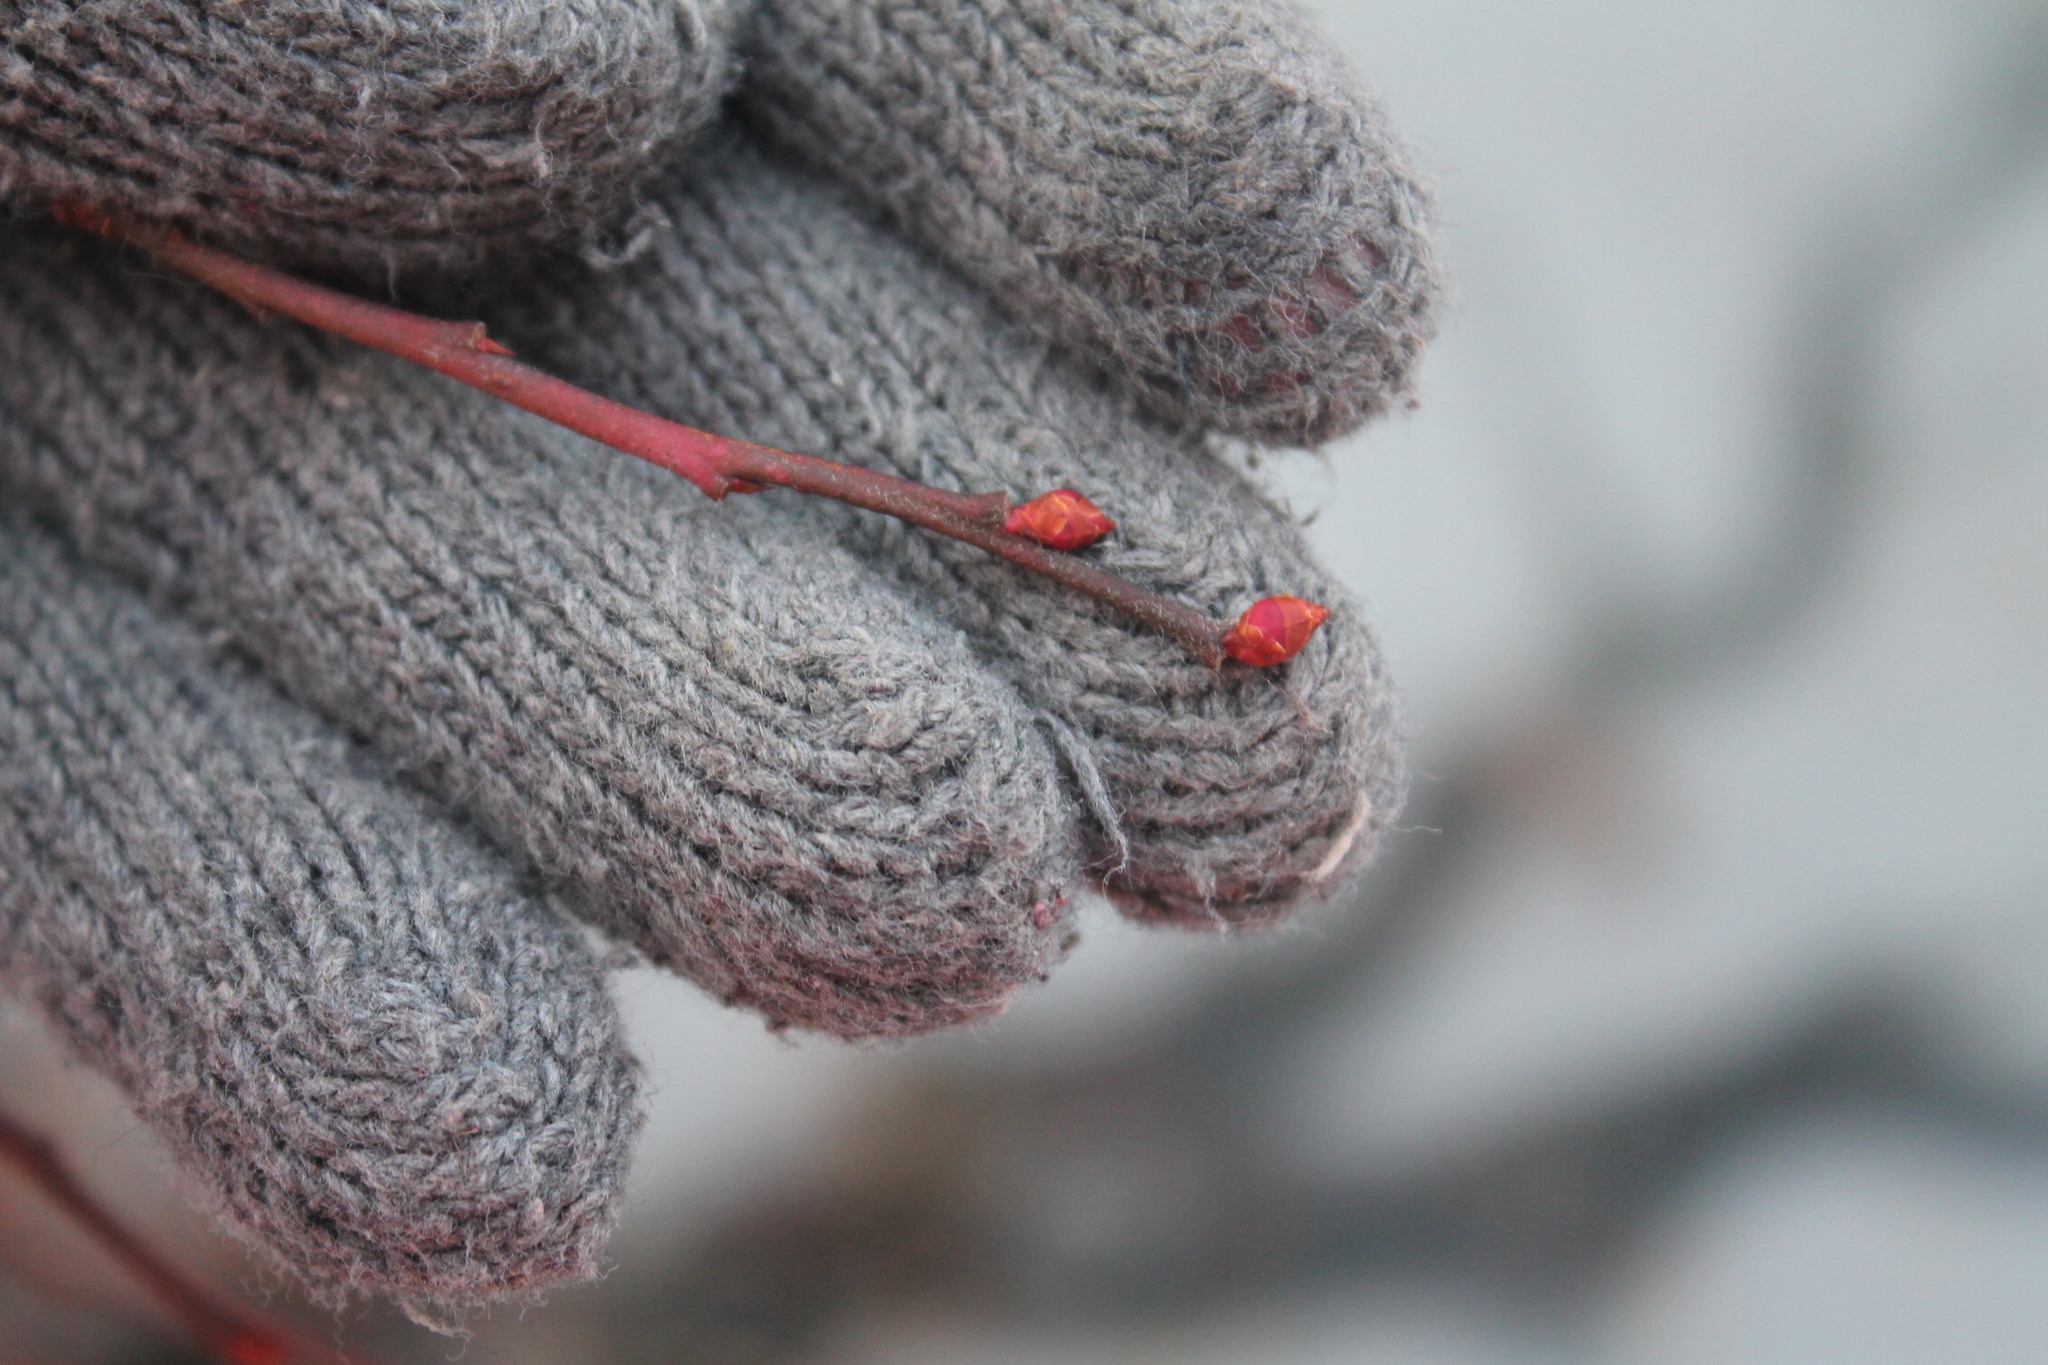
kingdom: Plantae
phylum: Tracheophyta
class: Magnoliopsida
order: Ericales
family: Ericaceae
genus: Vaccinium
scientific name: Vaccinium corymbosum
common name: Blueberry
